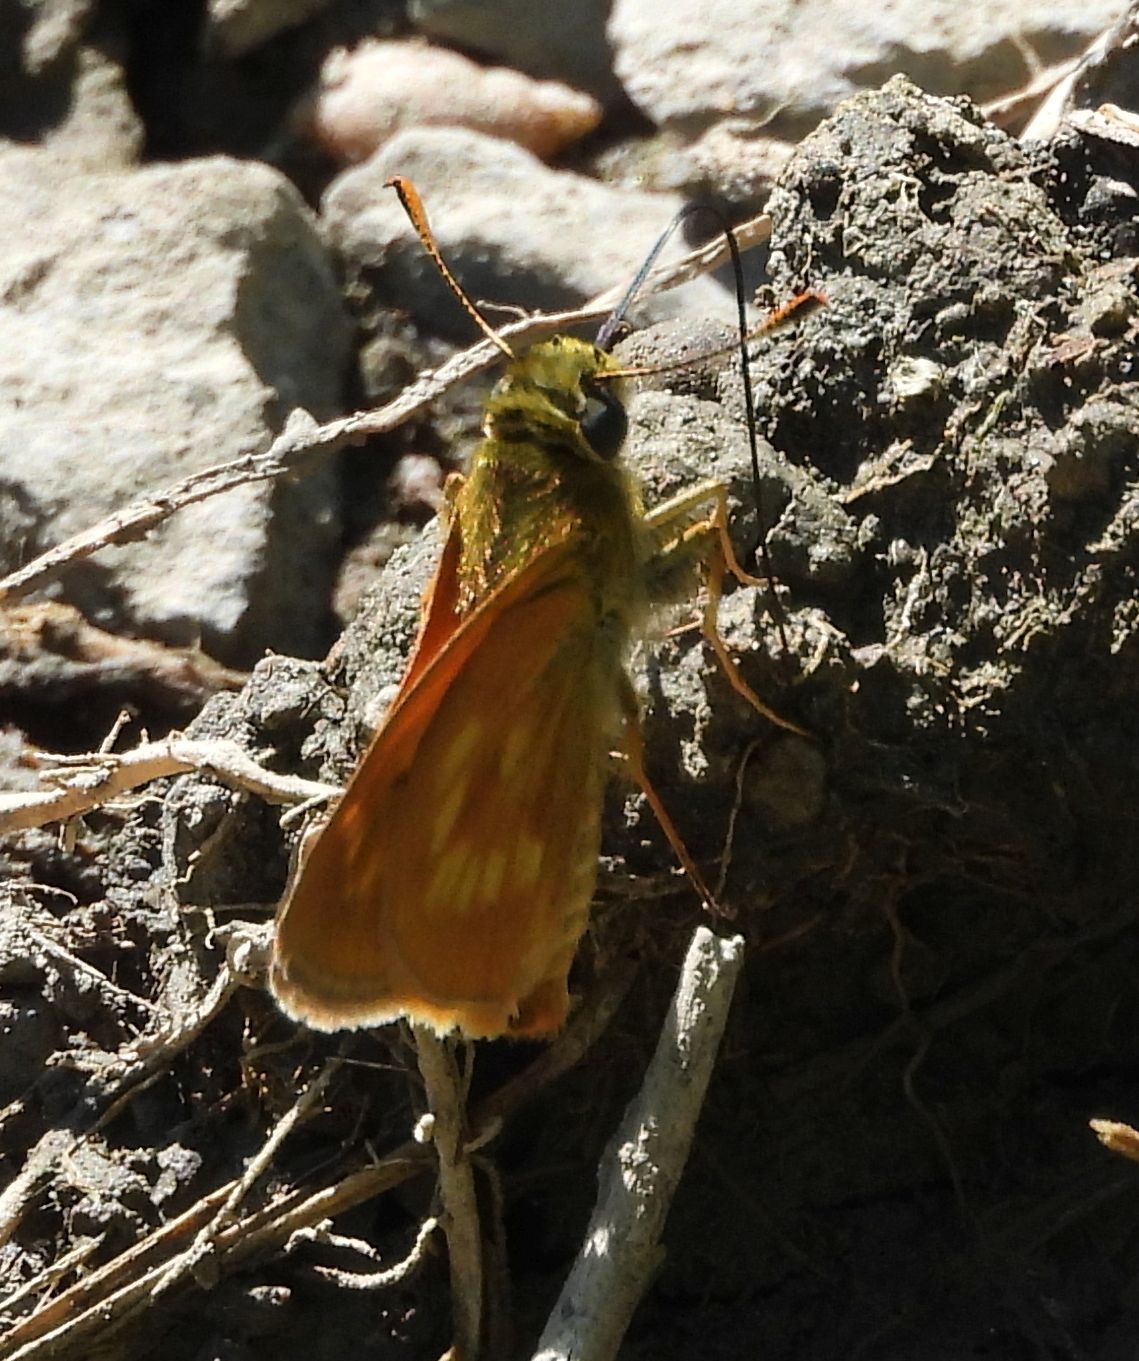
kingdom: Animalia
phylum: Arthropoda
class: Insecta
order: Lepidoptera
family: Hesperiidae
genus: Polites
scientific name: Polites mystic
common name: Long dash
